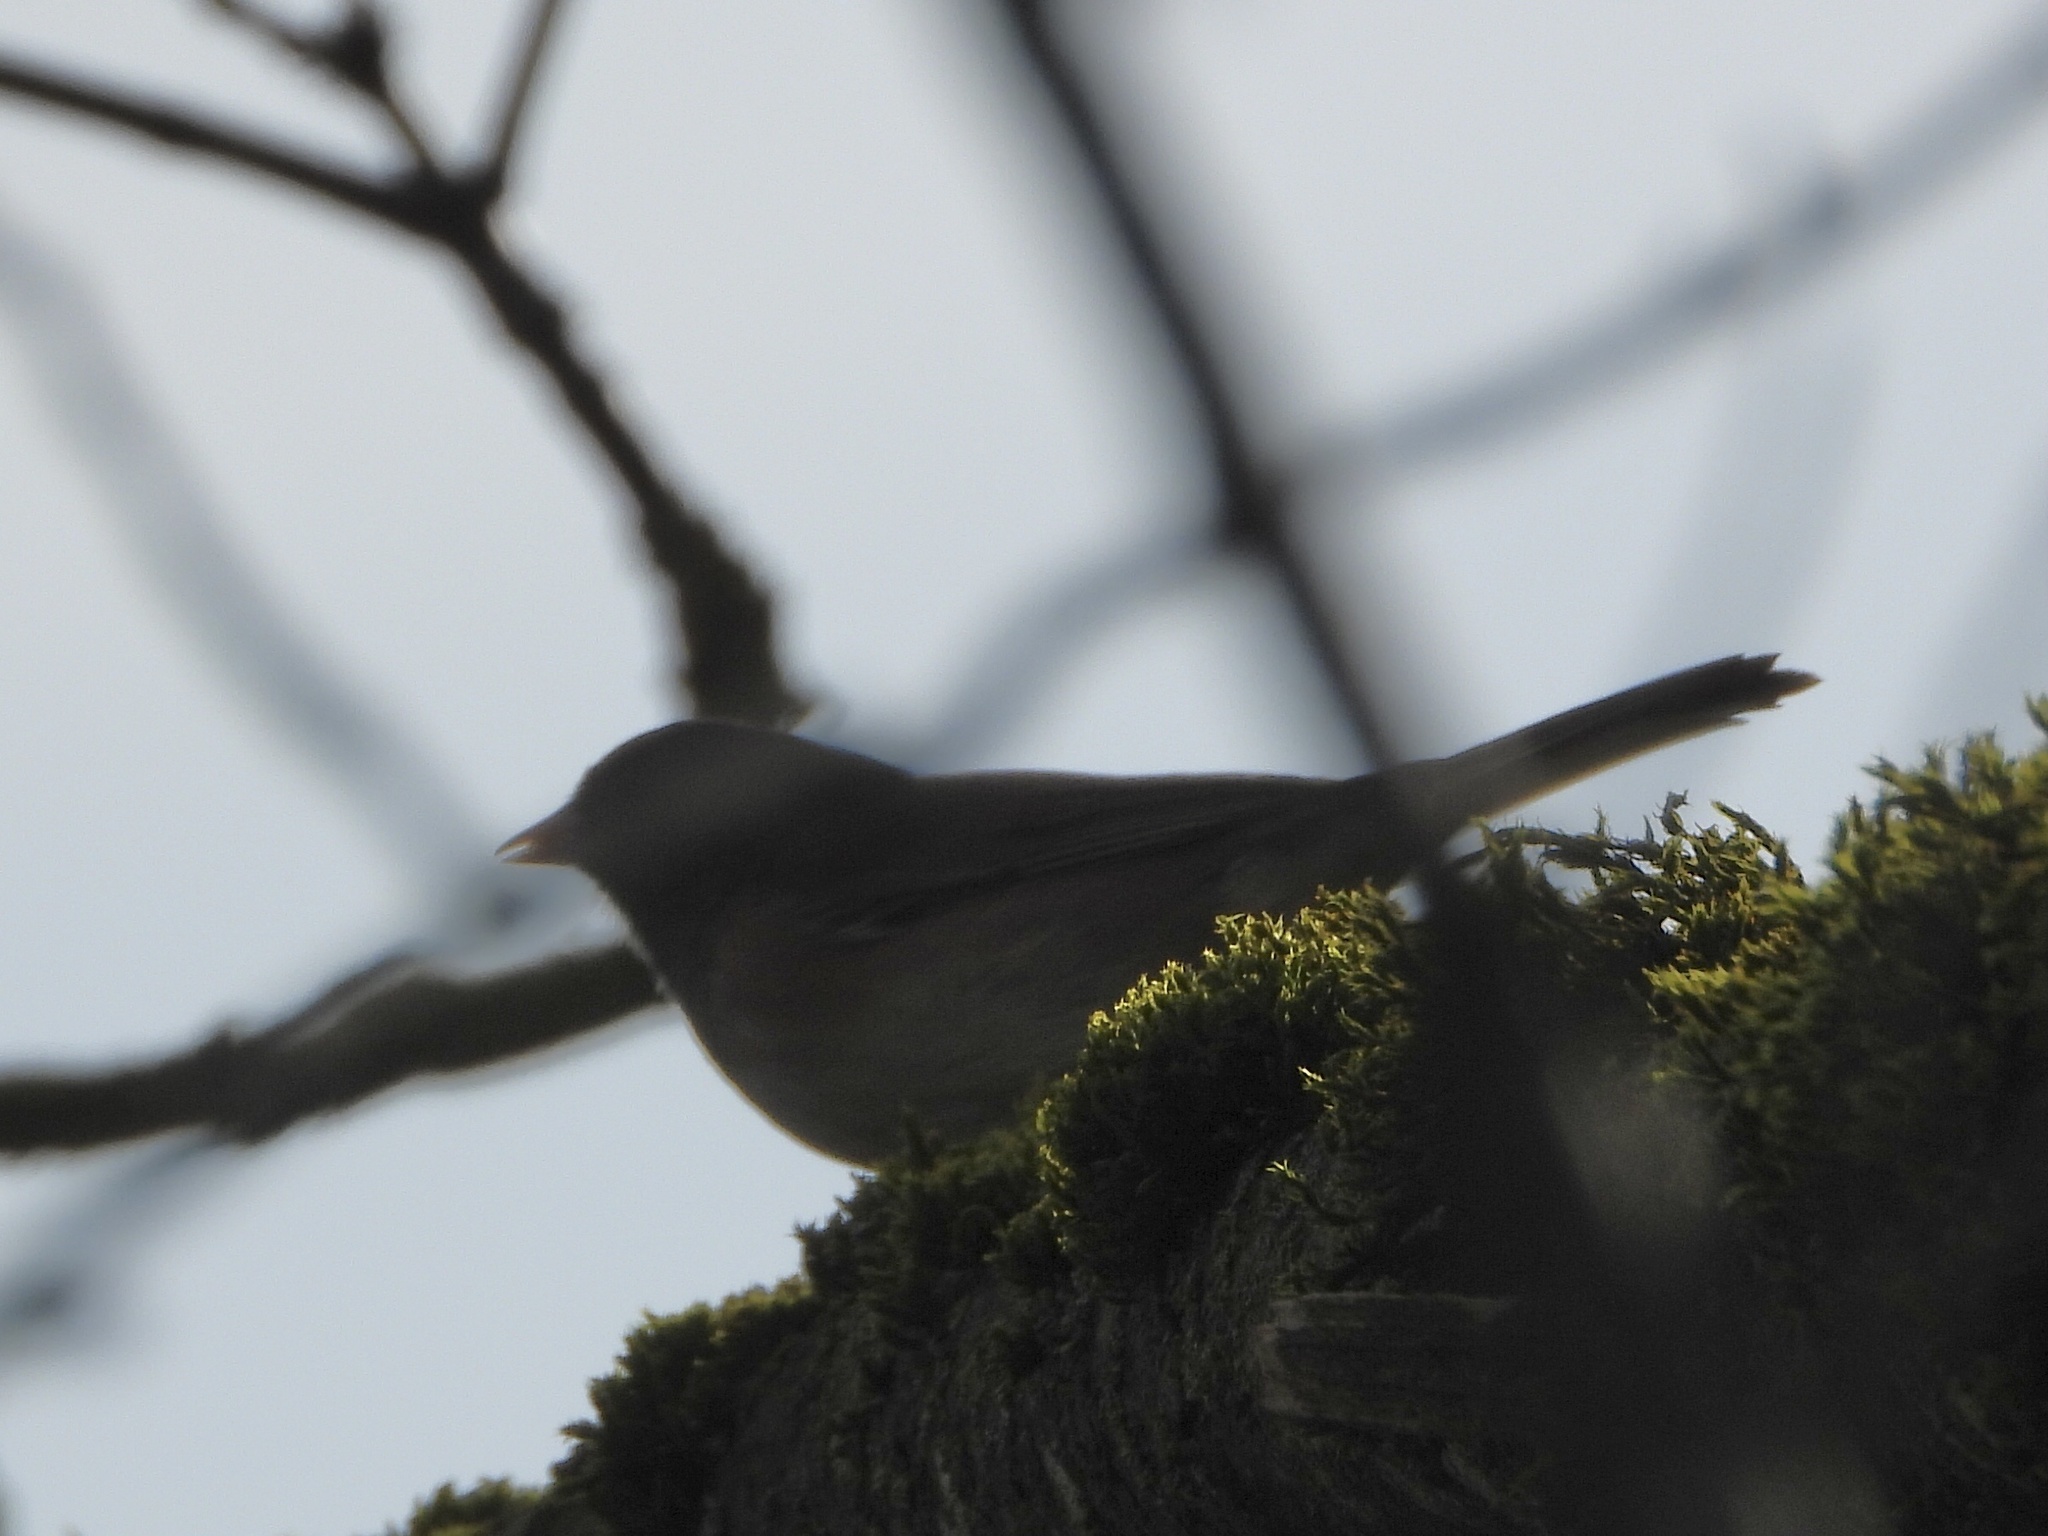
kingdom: Animalia
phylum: Chordata
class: Aves
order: Passeriformes
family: Passerellidae
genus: Junco
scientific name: Junco hyemalis
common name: Dark-eyed junco
